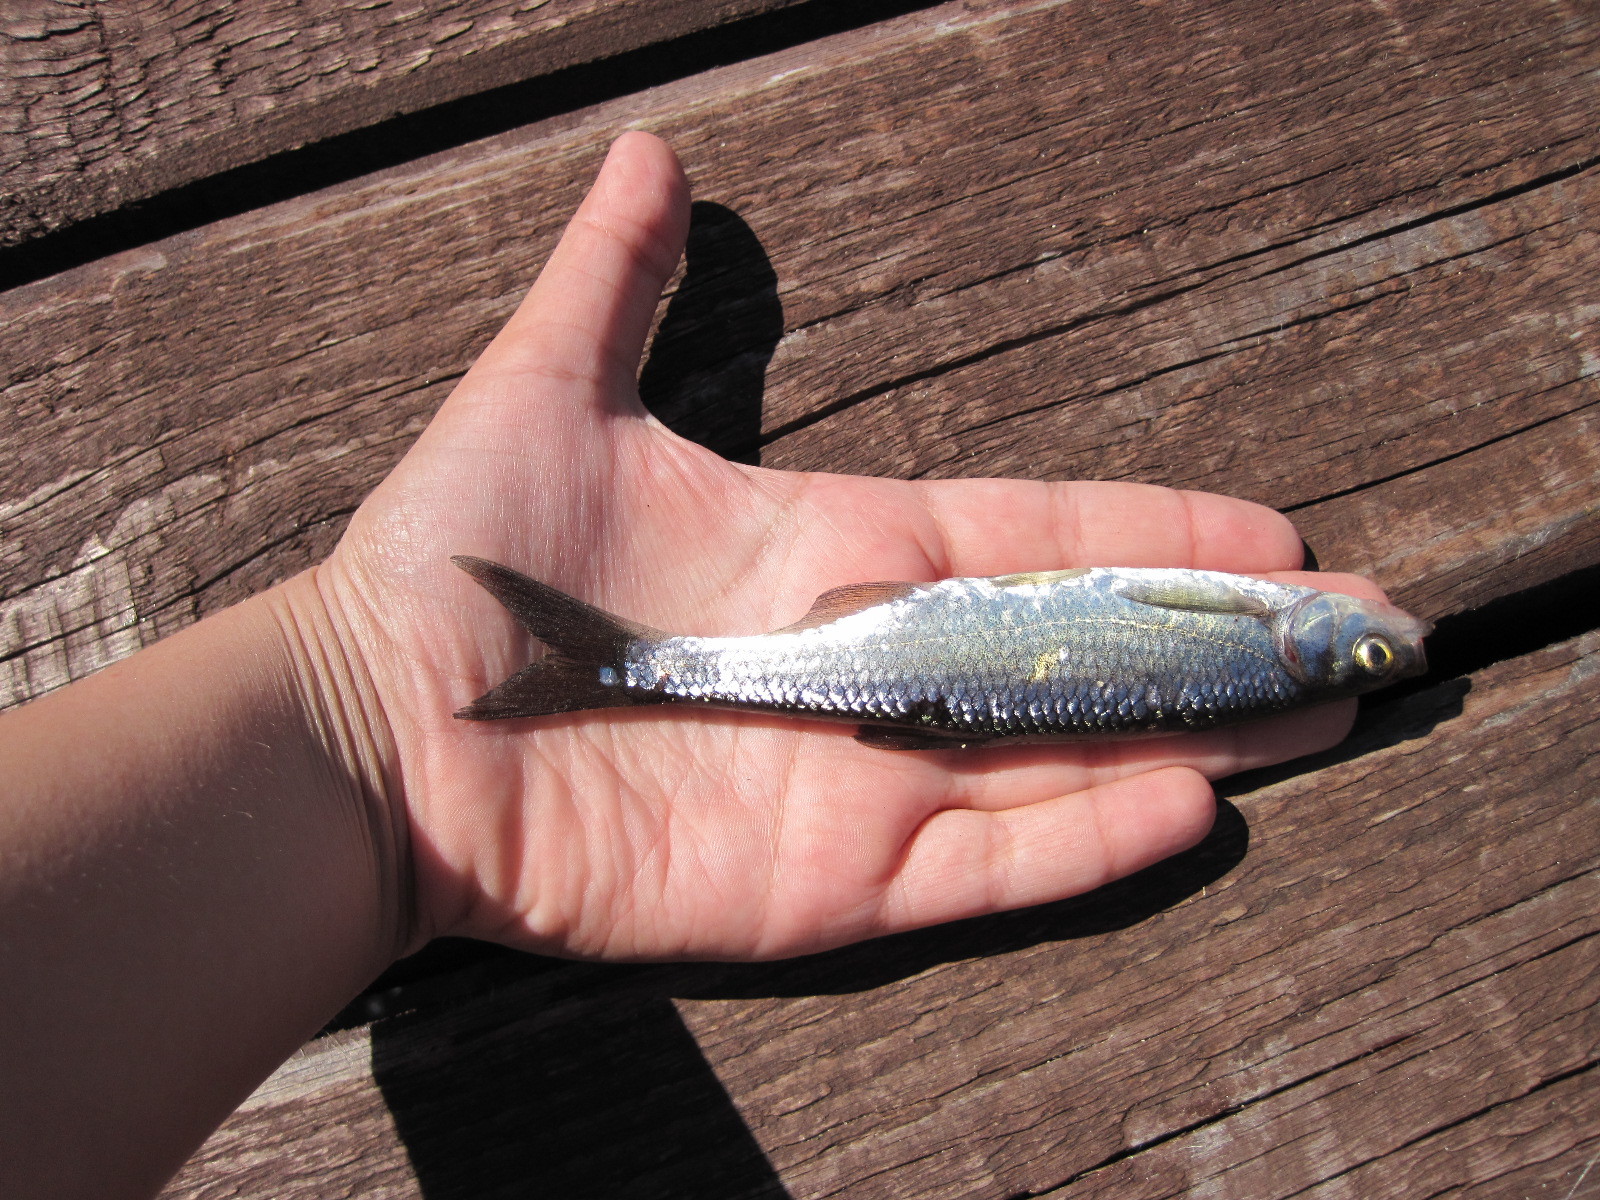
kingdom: Animalia
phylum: Chordata
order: Cypriniformes
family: Cyprinidae
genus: Alburnus
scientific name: Alburnus alburnus
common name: Bleak
